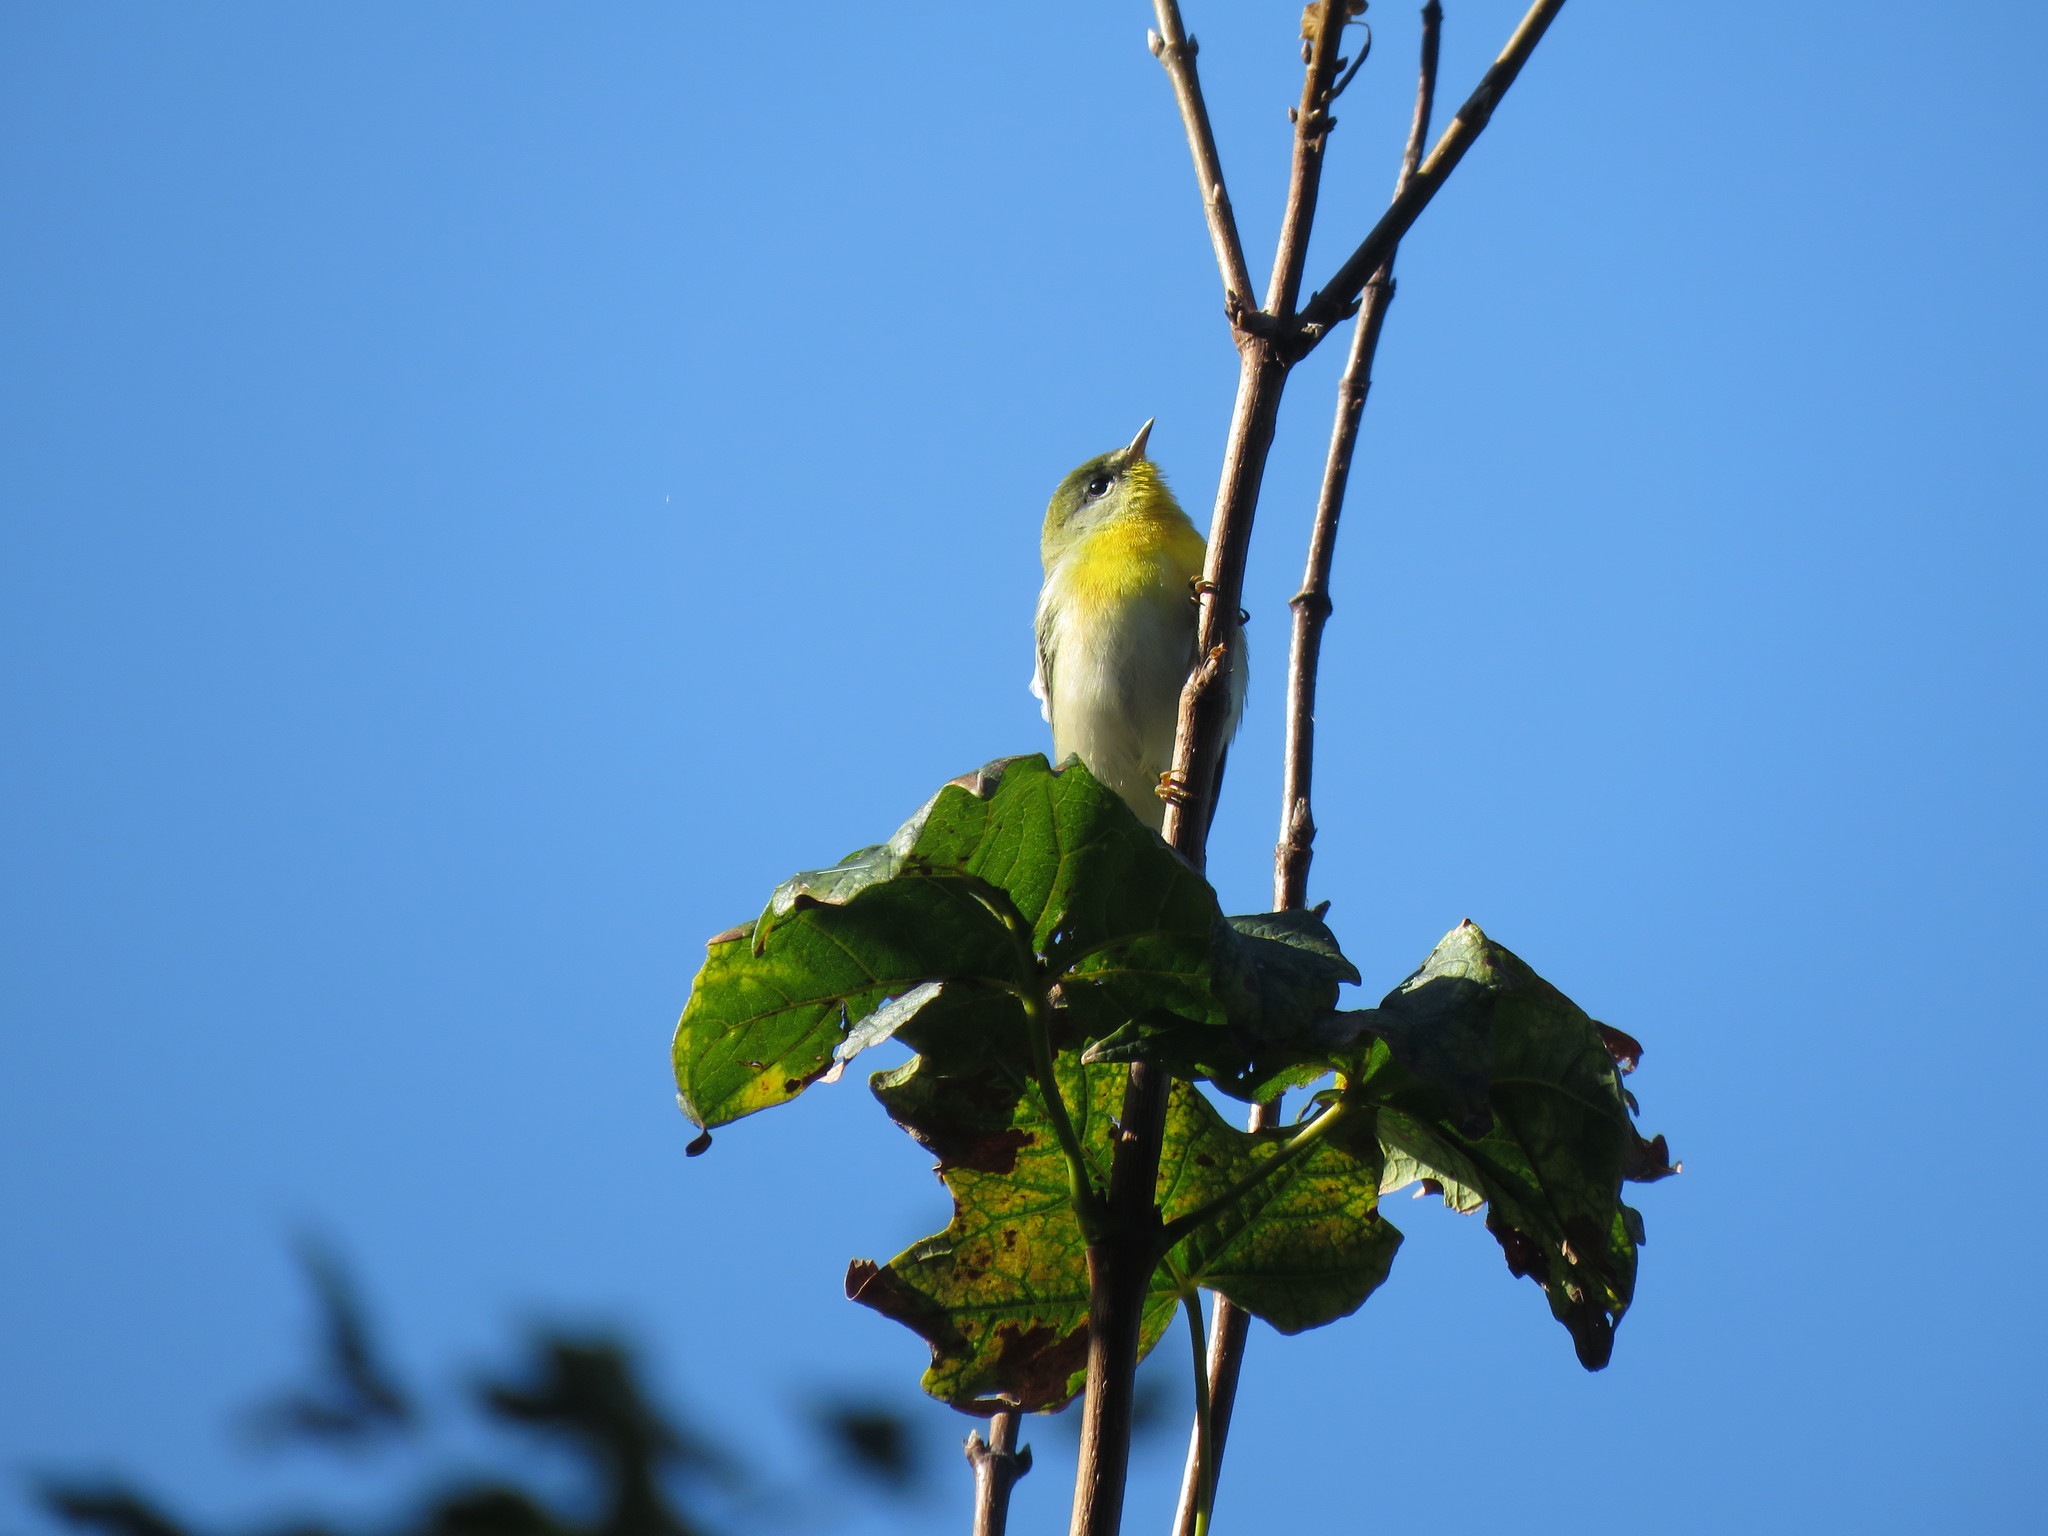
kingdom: Animalia
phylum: Chordata
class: Aves
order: Passeriformes
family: Parulidae
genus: Setophaga
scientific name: Setophaga americana
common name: Northern parula
